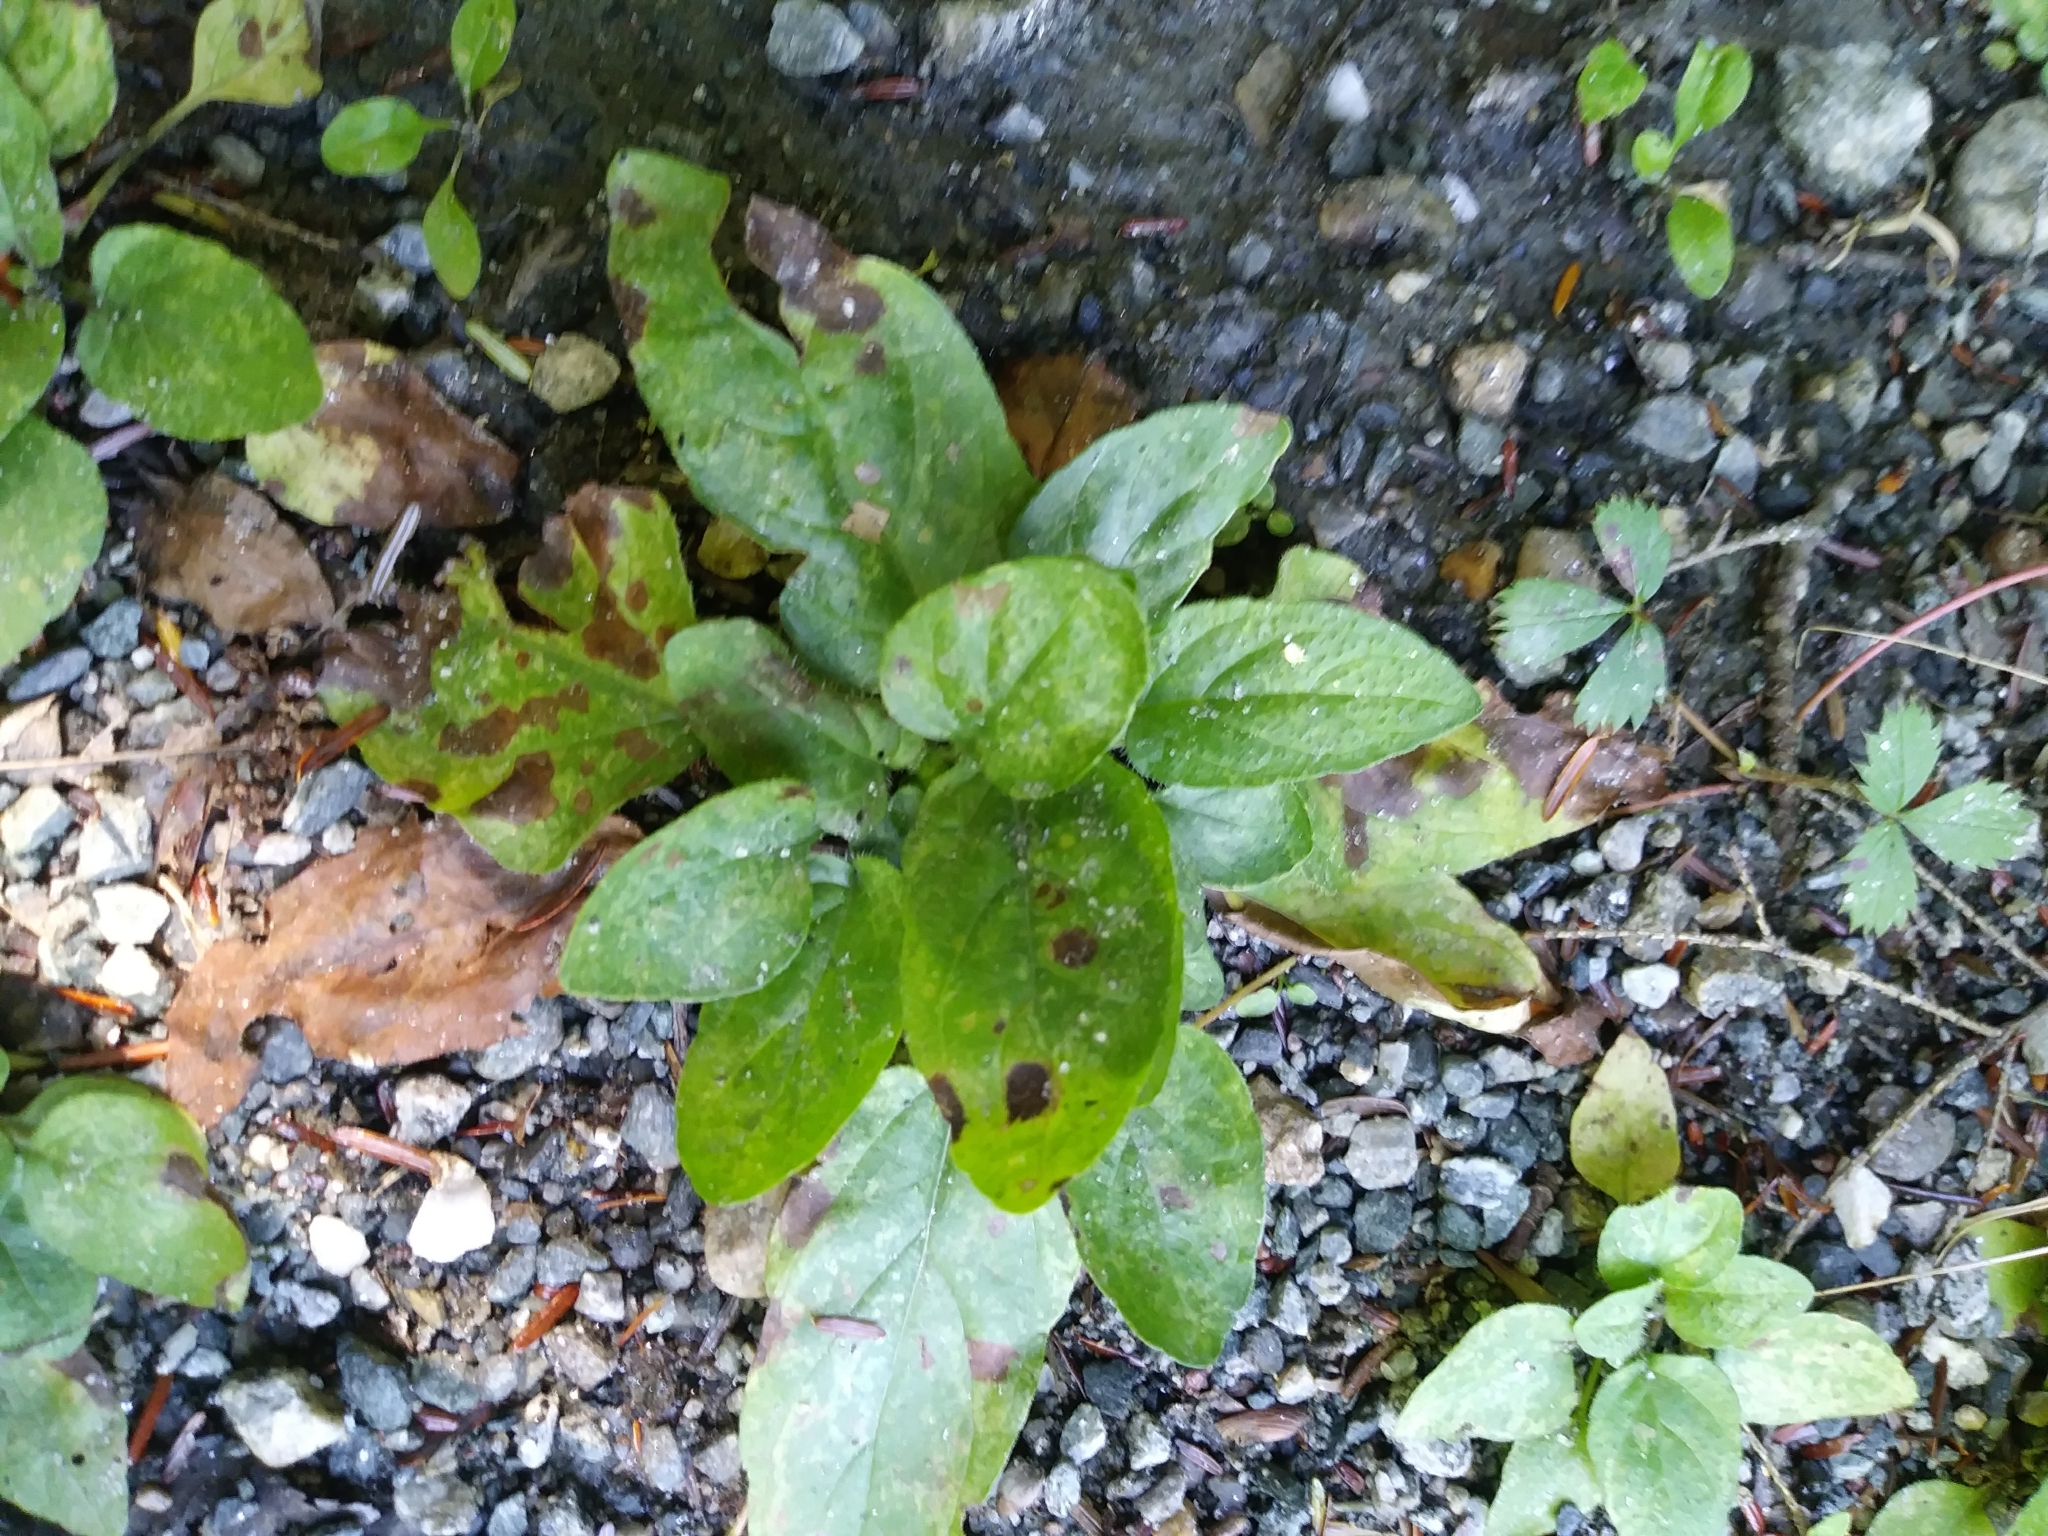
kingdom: Plantae
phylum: Tracheophyta
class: Magnoliopsida
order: Lamiales
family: Lamiaceae
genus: Prunella
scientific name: Prunella vulgaris
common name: Heal-all
